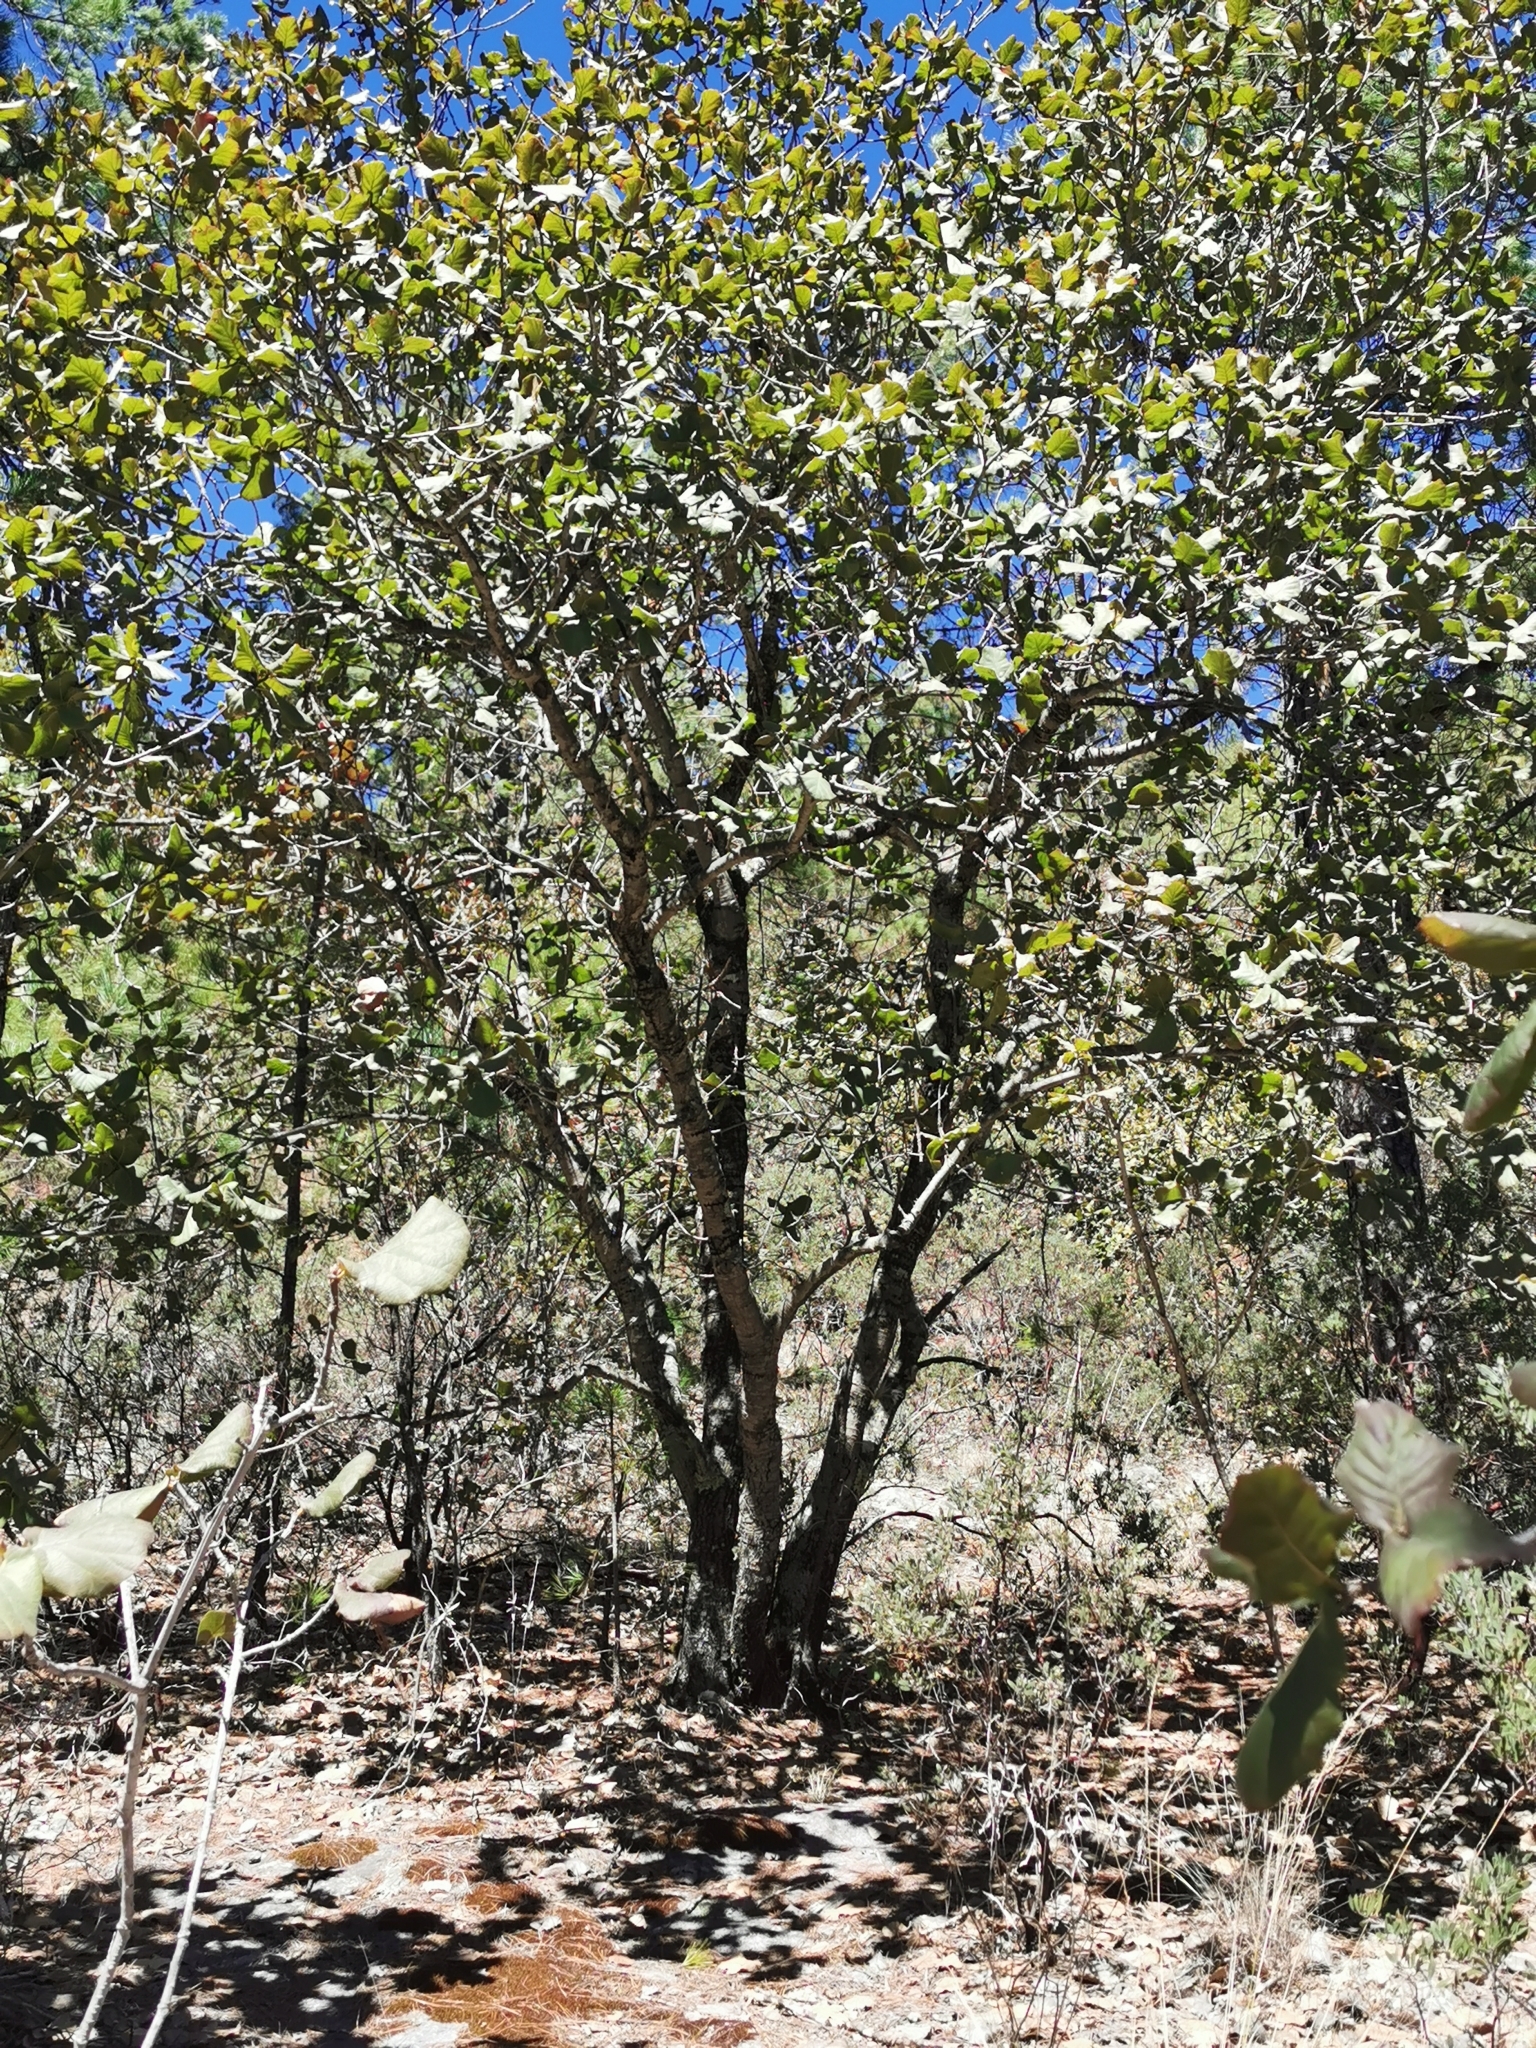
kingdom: Plantae
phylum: Tracheophyta
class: Magnoliopsida
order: Fagales
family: Fagaceae
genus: Quercus
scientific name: Quercus jonesii
